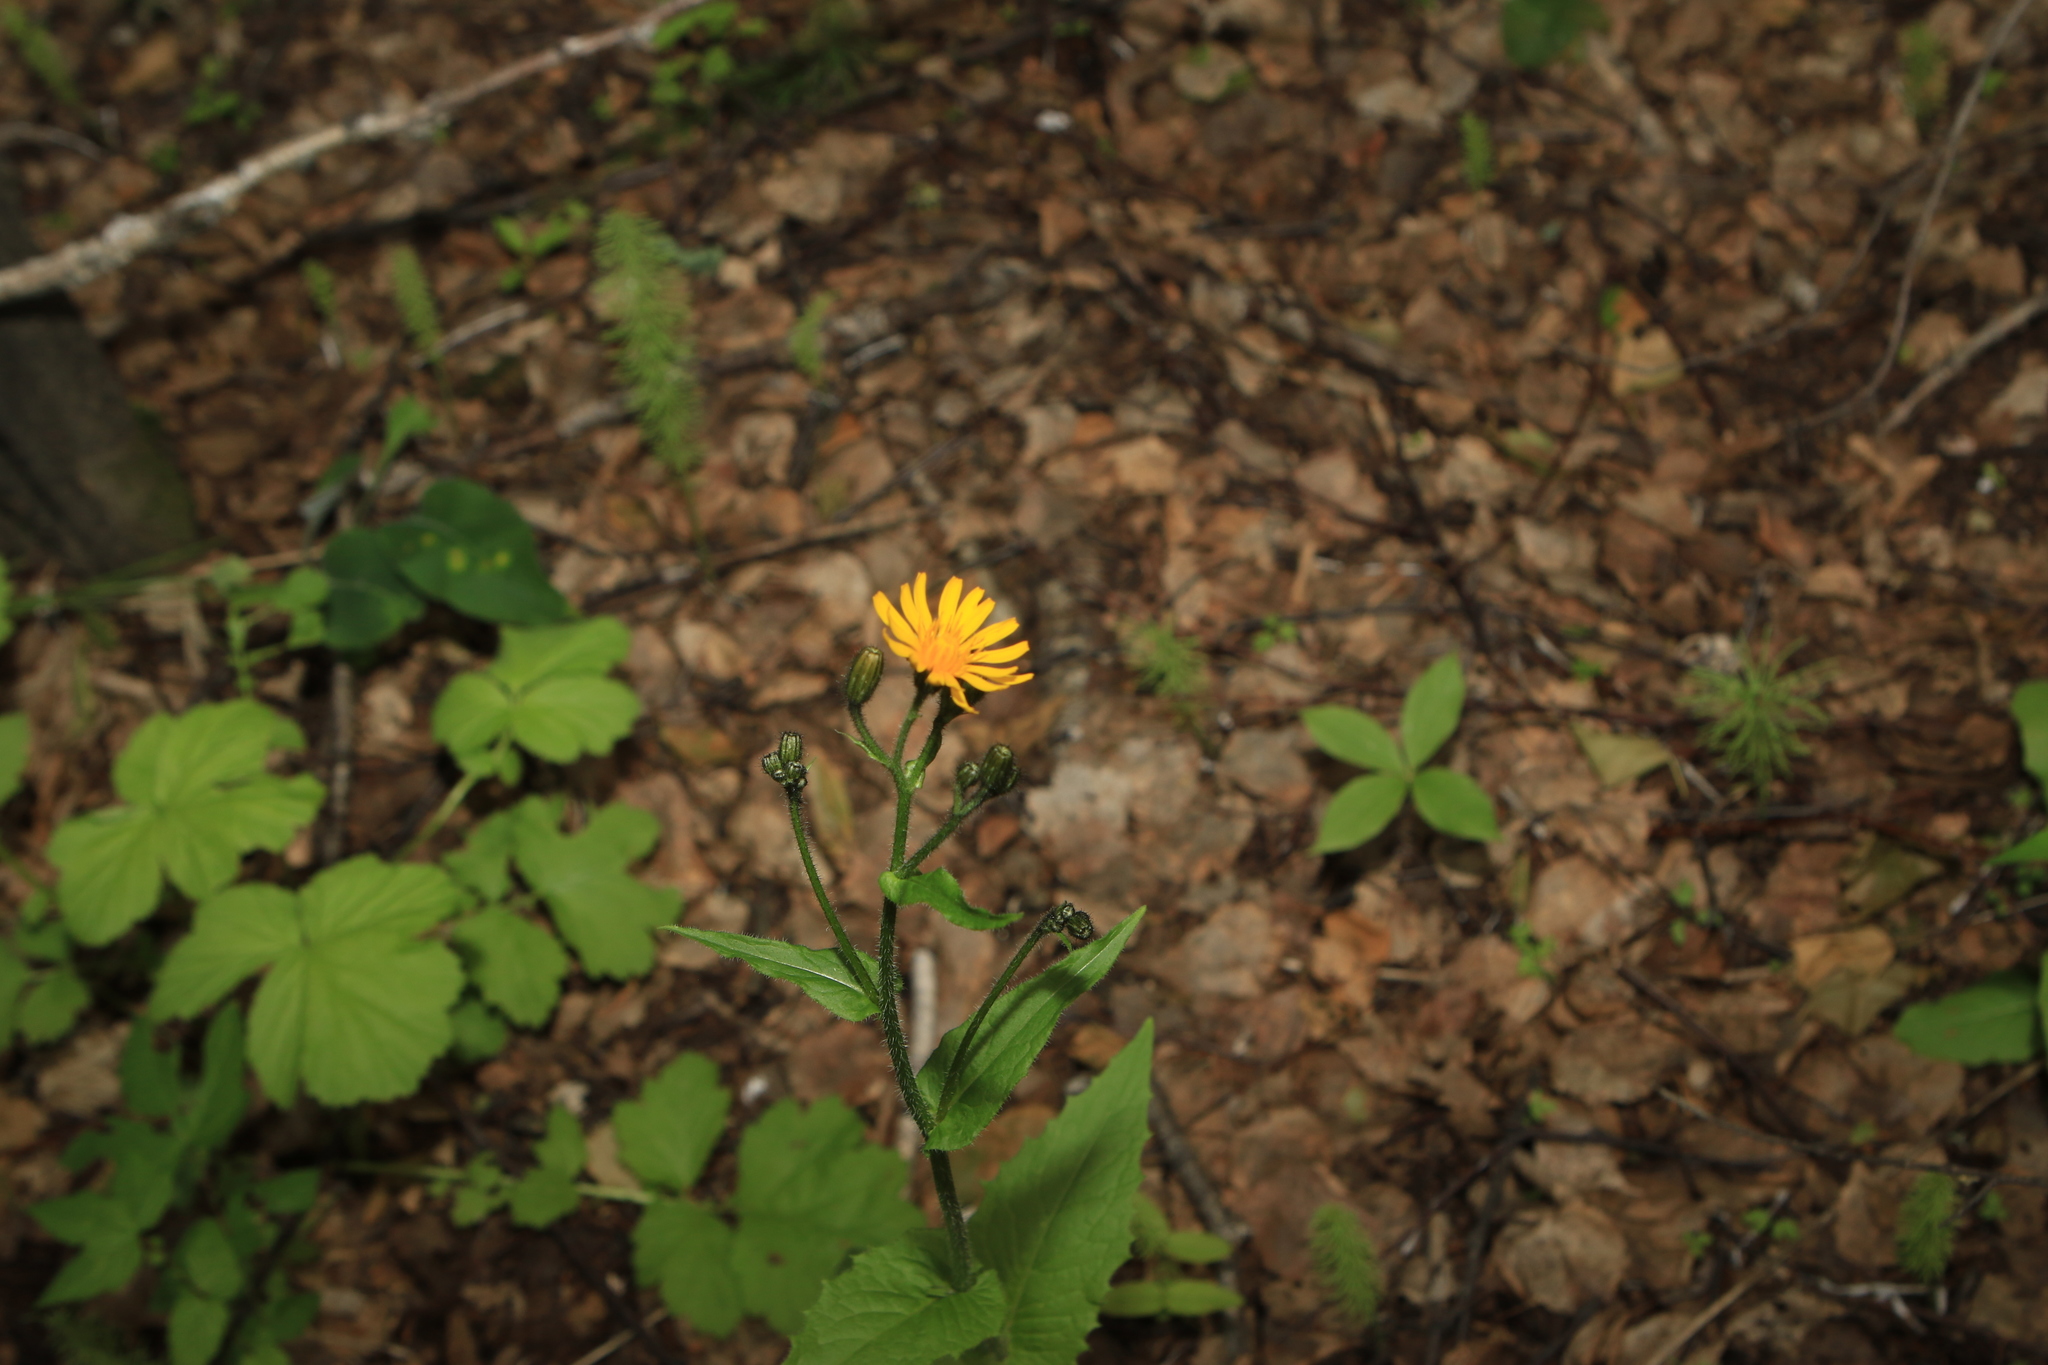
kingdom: Plantae
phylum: Tracheophyta
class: Magnoliopsida
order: Asterales
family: Asteraceae
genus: Crepis
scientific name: Crepis lyrata
